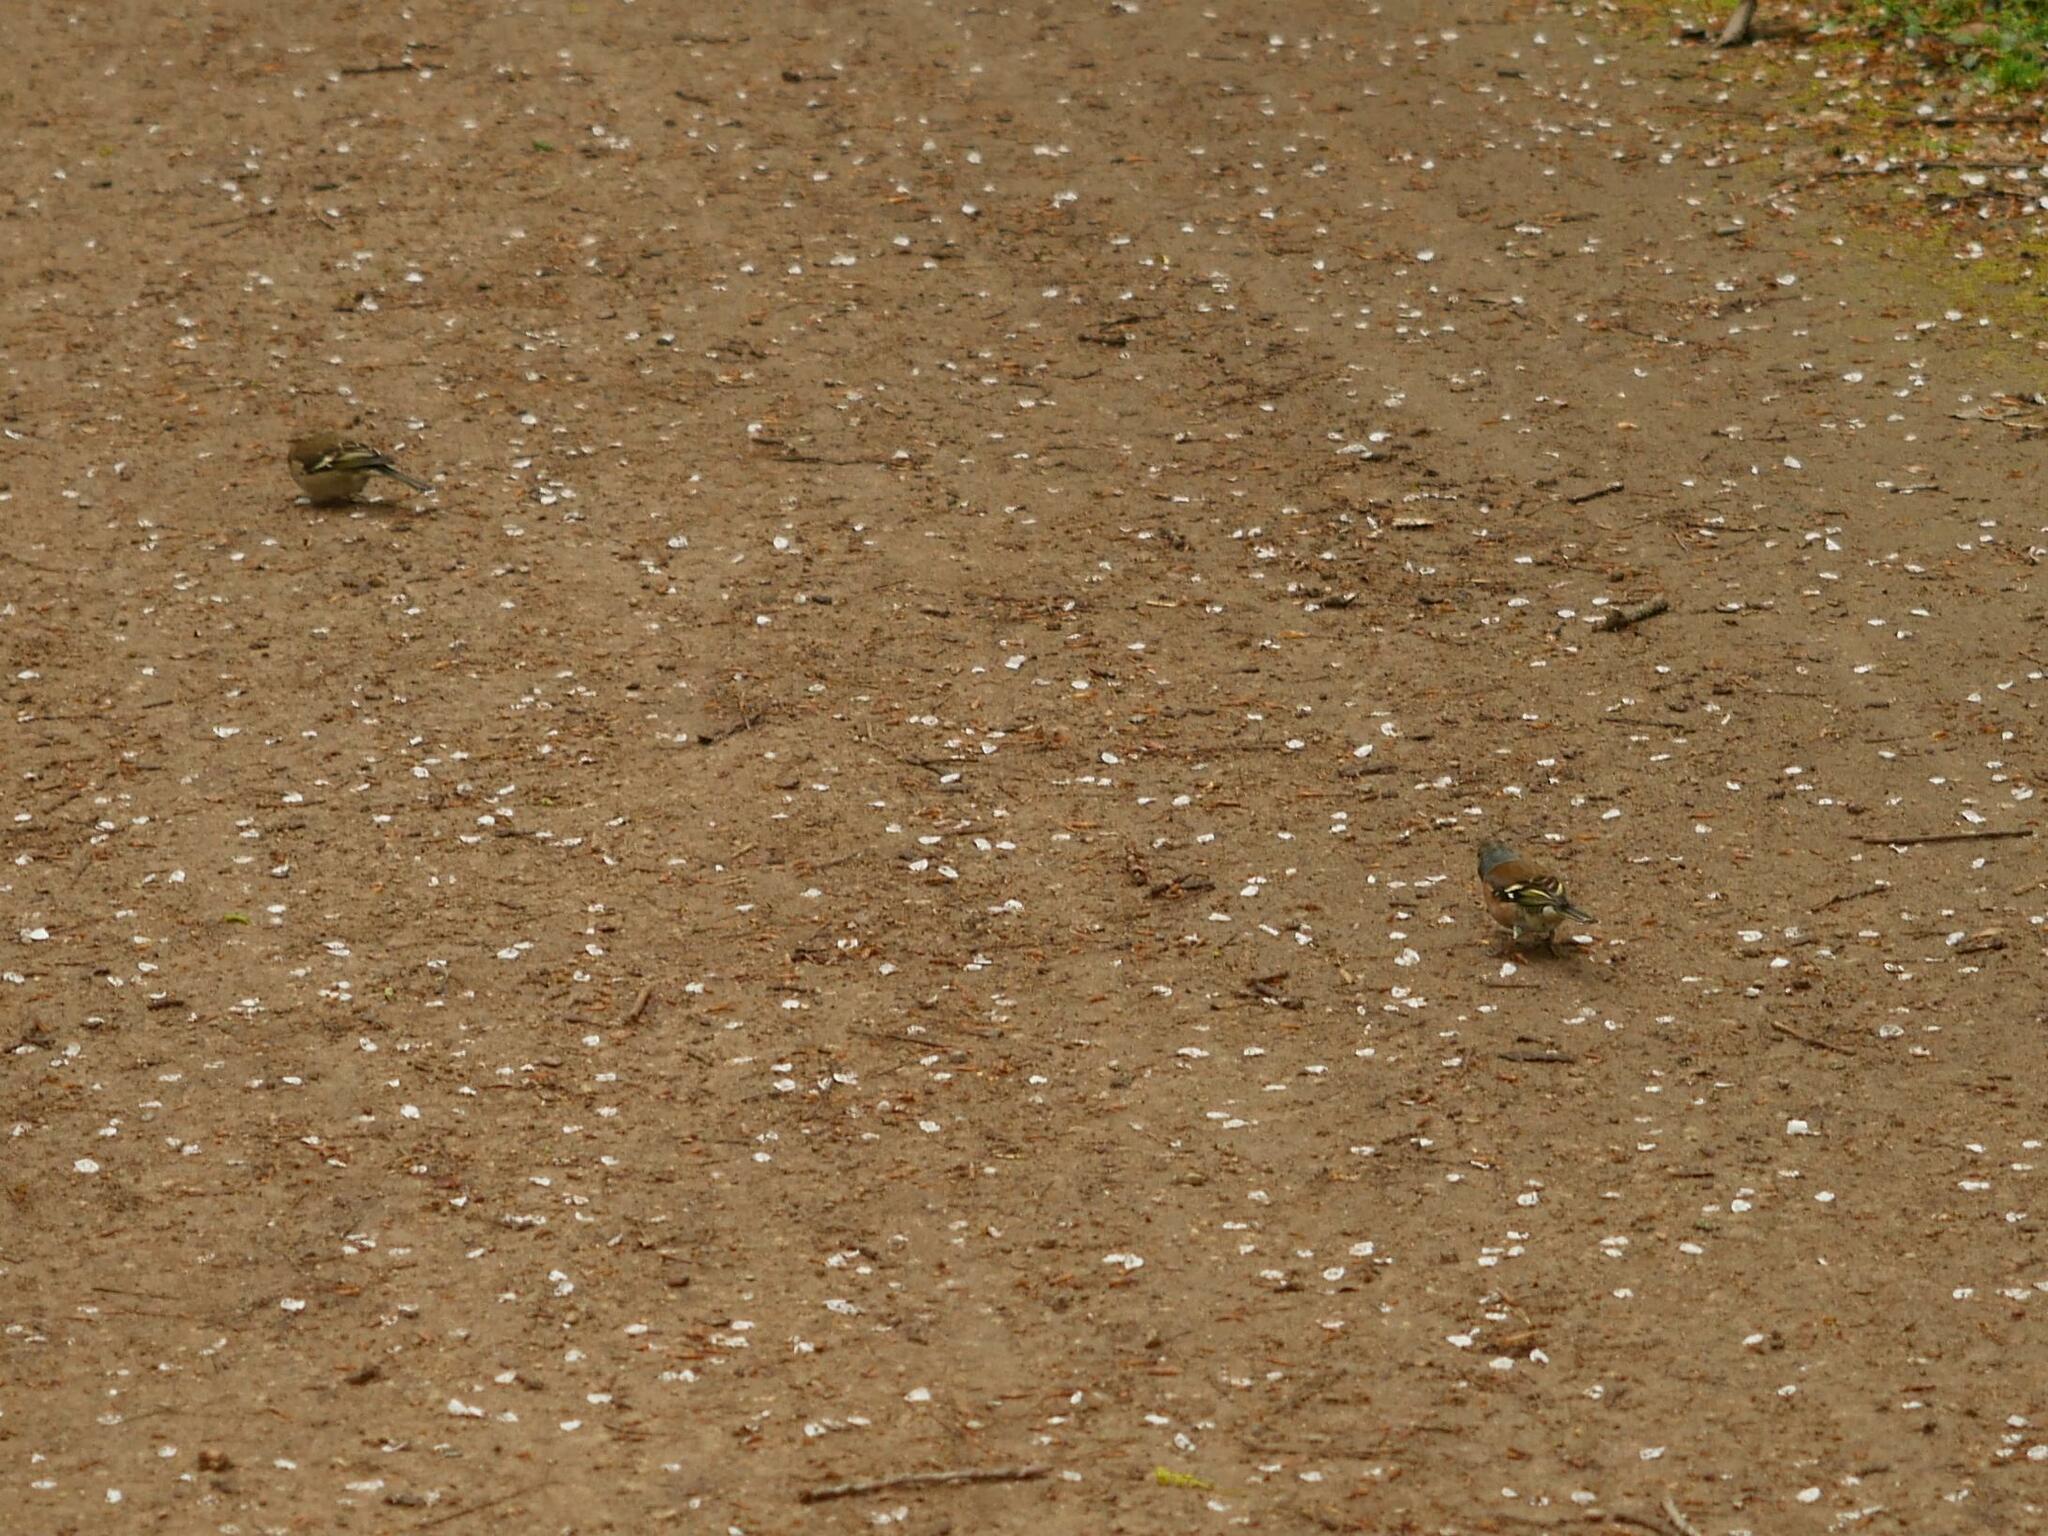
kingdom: Animalia
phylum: Chordata
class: Aves
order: Passeriformes
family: Fringillidae
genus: Fringilla
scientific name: Fringilla coelebs
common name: Common chaffinch
